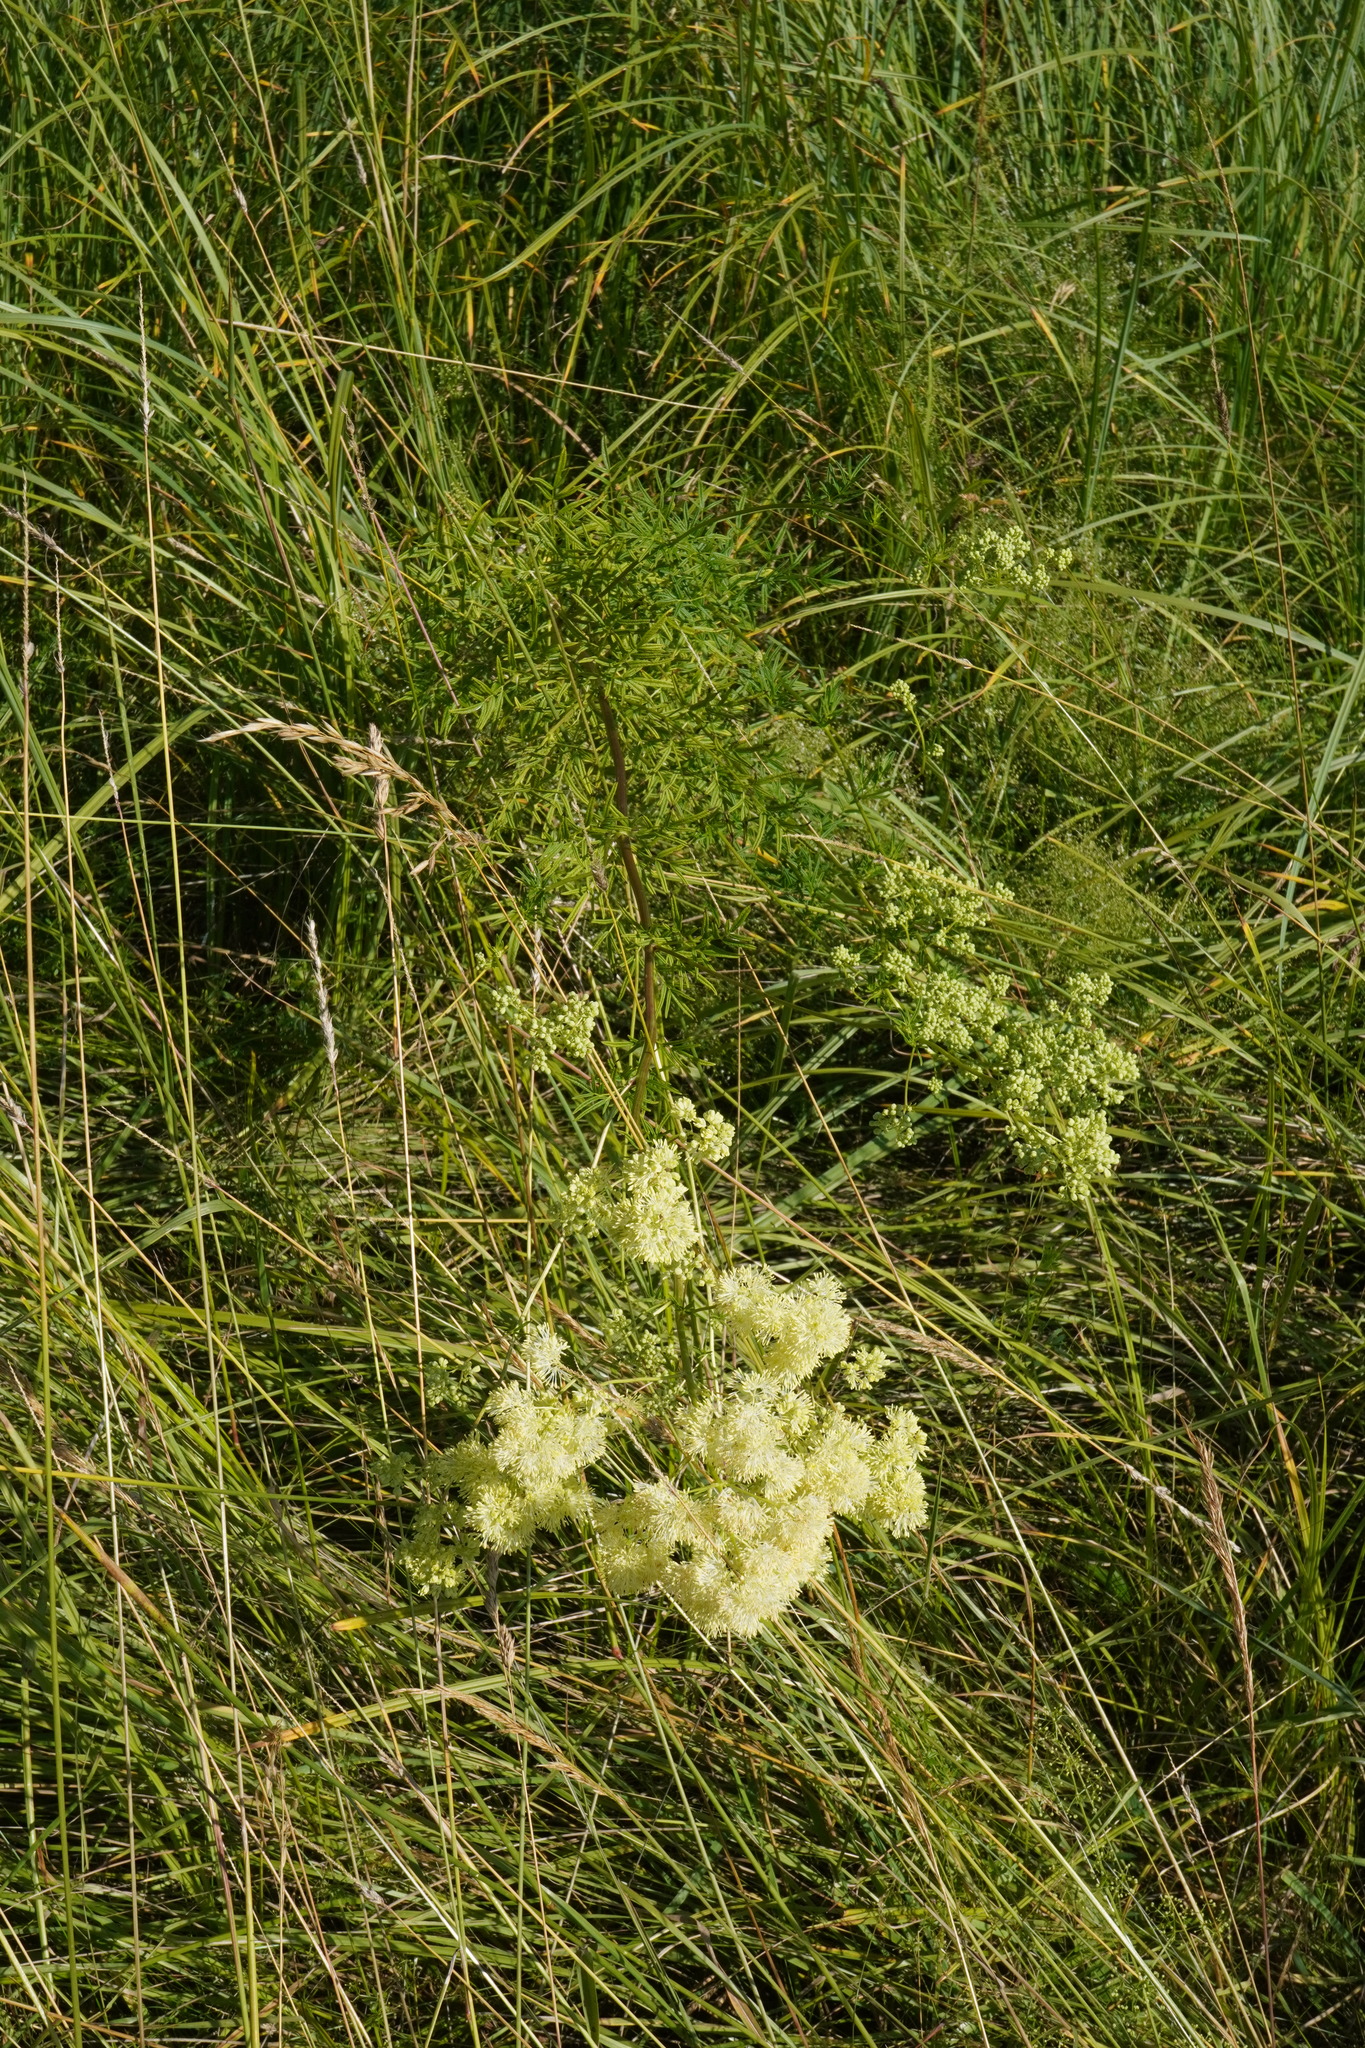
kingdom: Plantae
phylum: Tracheophyta
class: Magnoliopsida
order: Ranunculales
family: Ranunculaceae
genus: Thalictrum
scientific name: Thalictrum lucidum
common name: Shining meadow-rue
